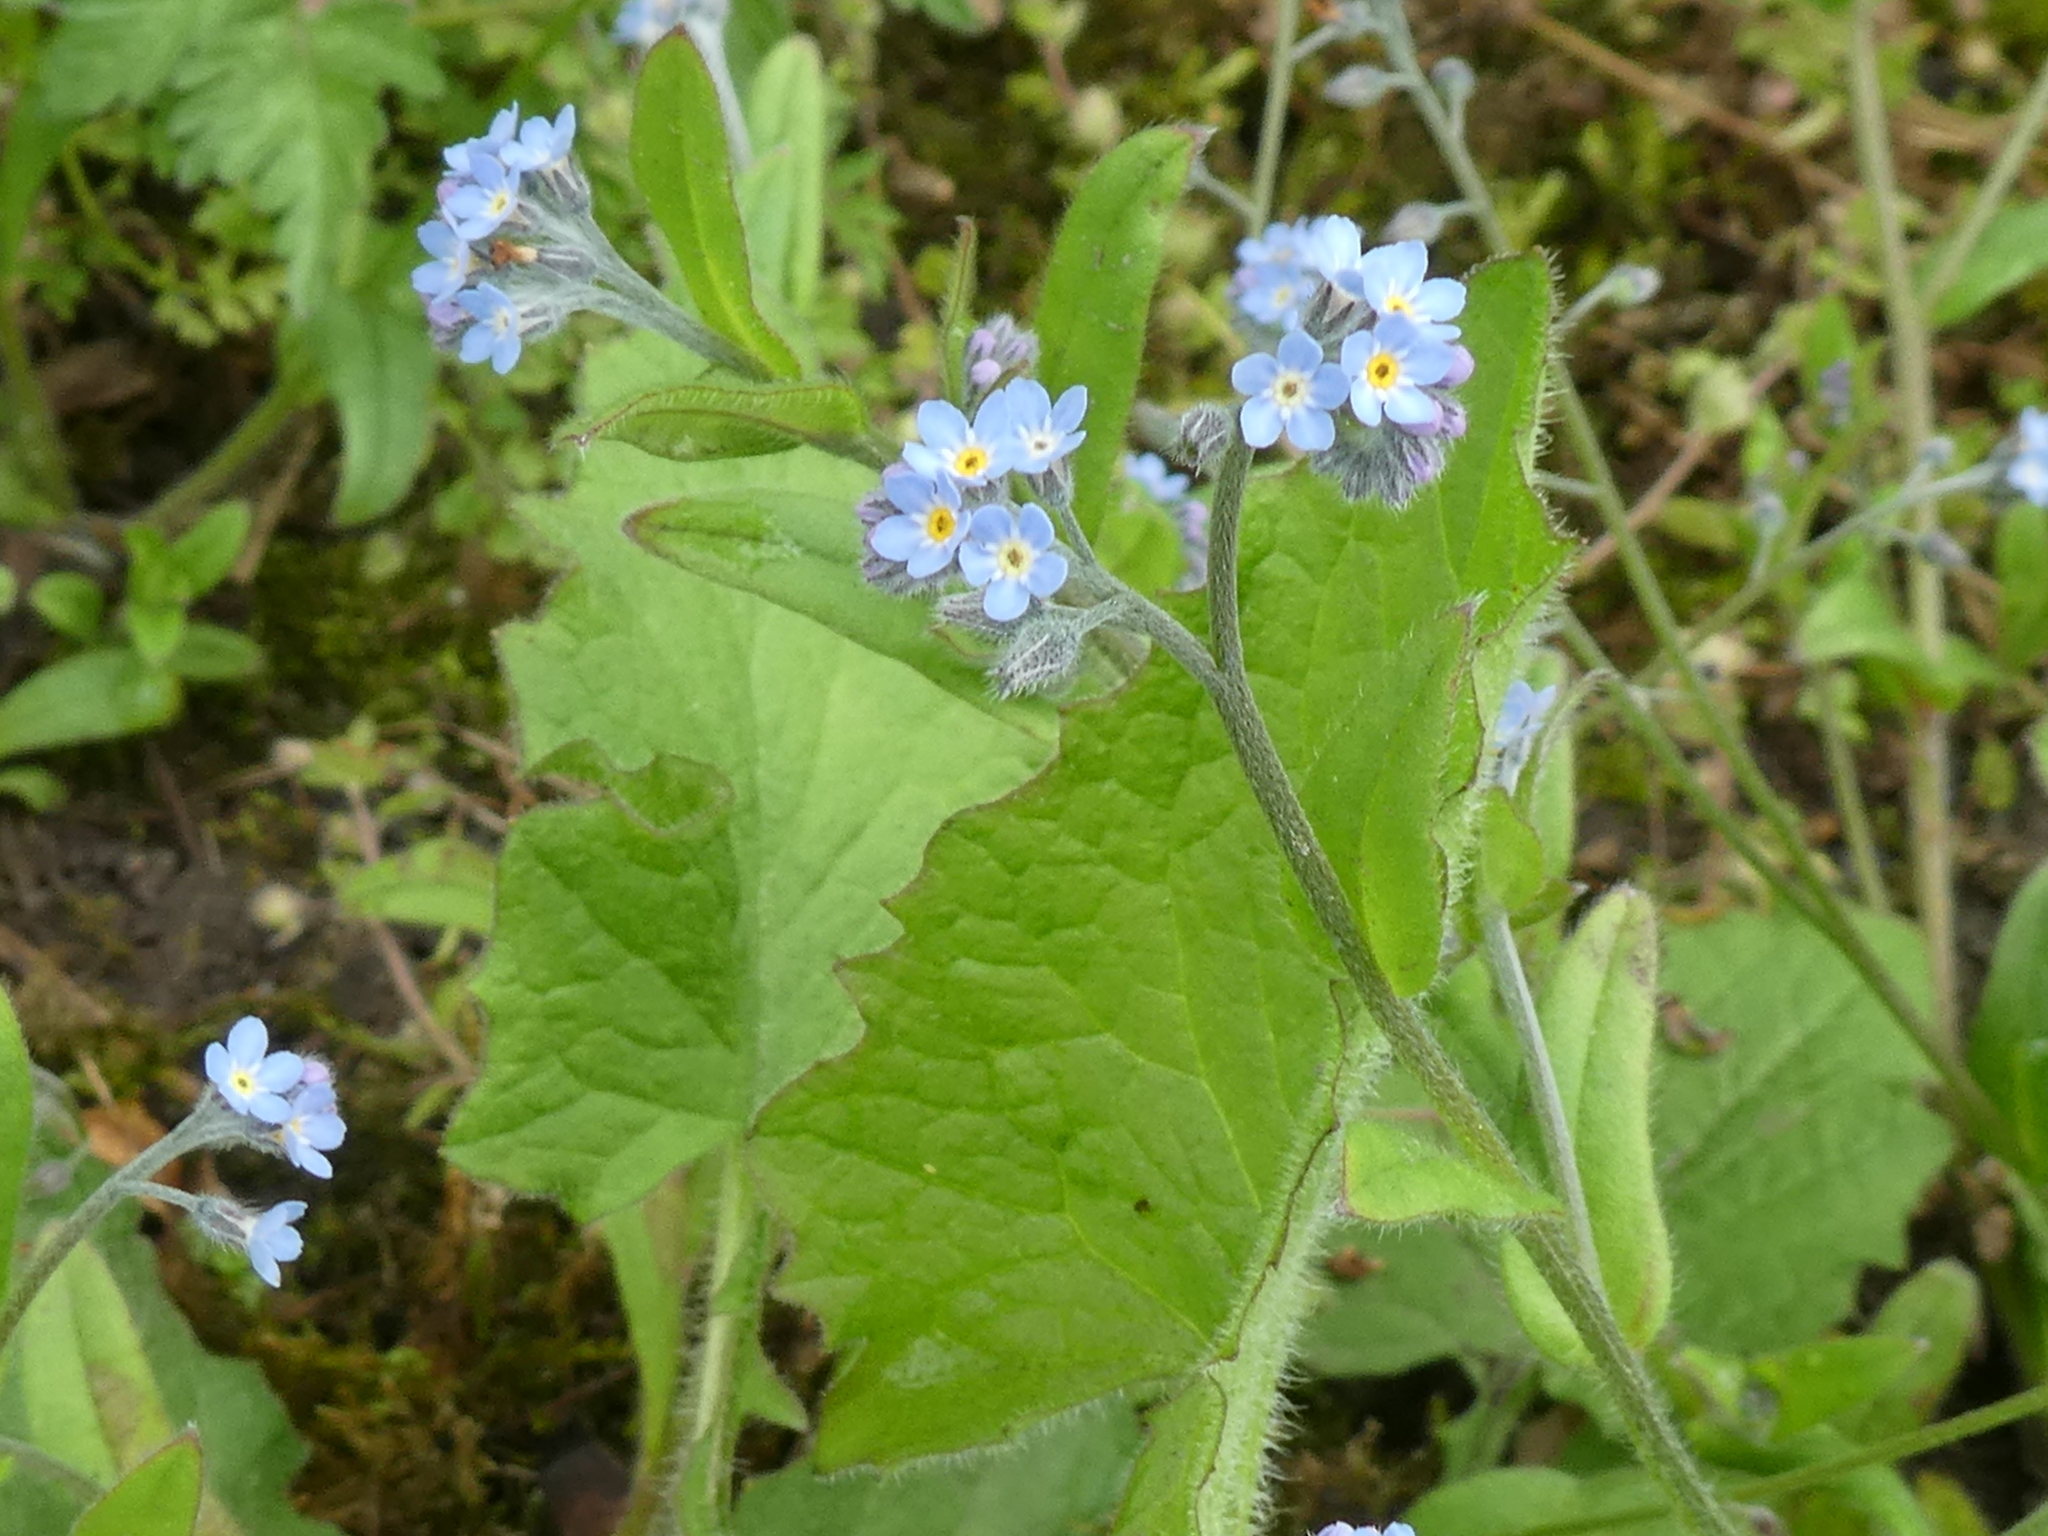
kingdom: Plantae
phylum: Tracheophyta
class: Magnoliopsida
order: Boraginales
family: Boraginaceae
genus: Myosotis
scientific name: Myosotis sylvatica
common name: Wood forget-me-not
